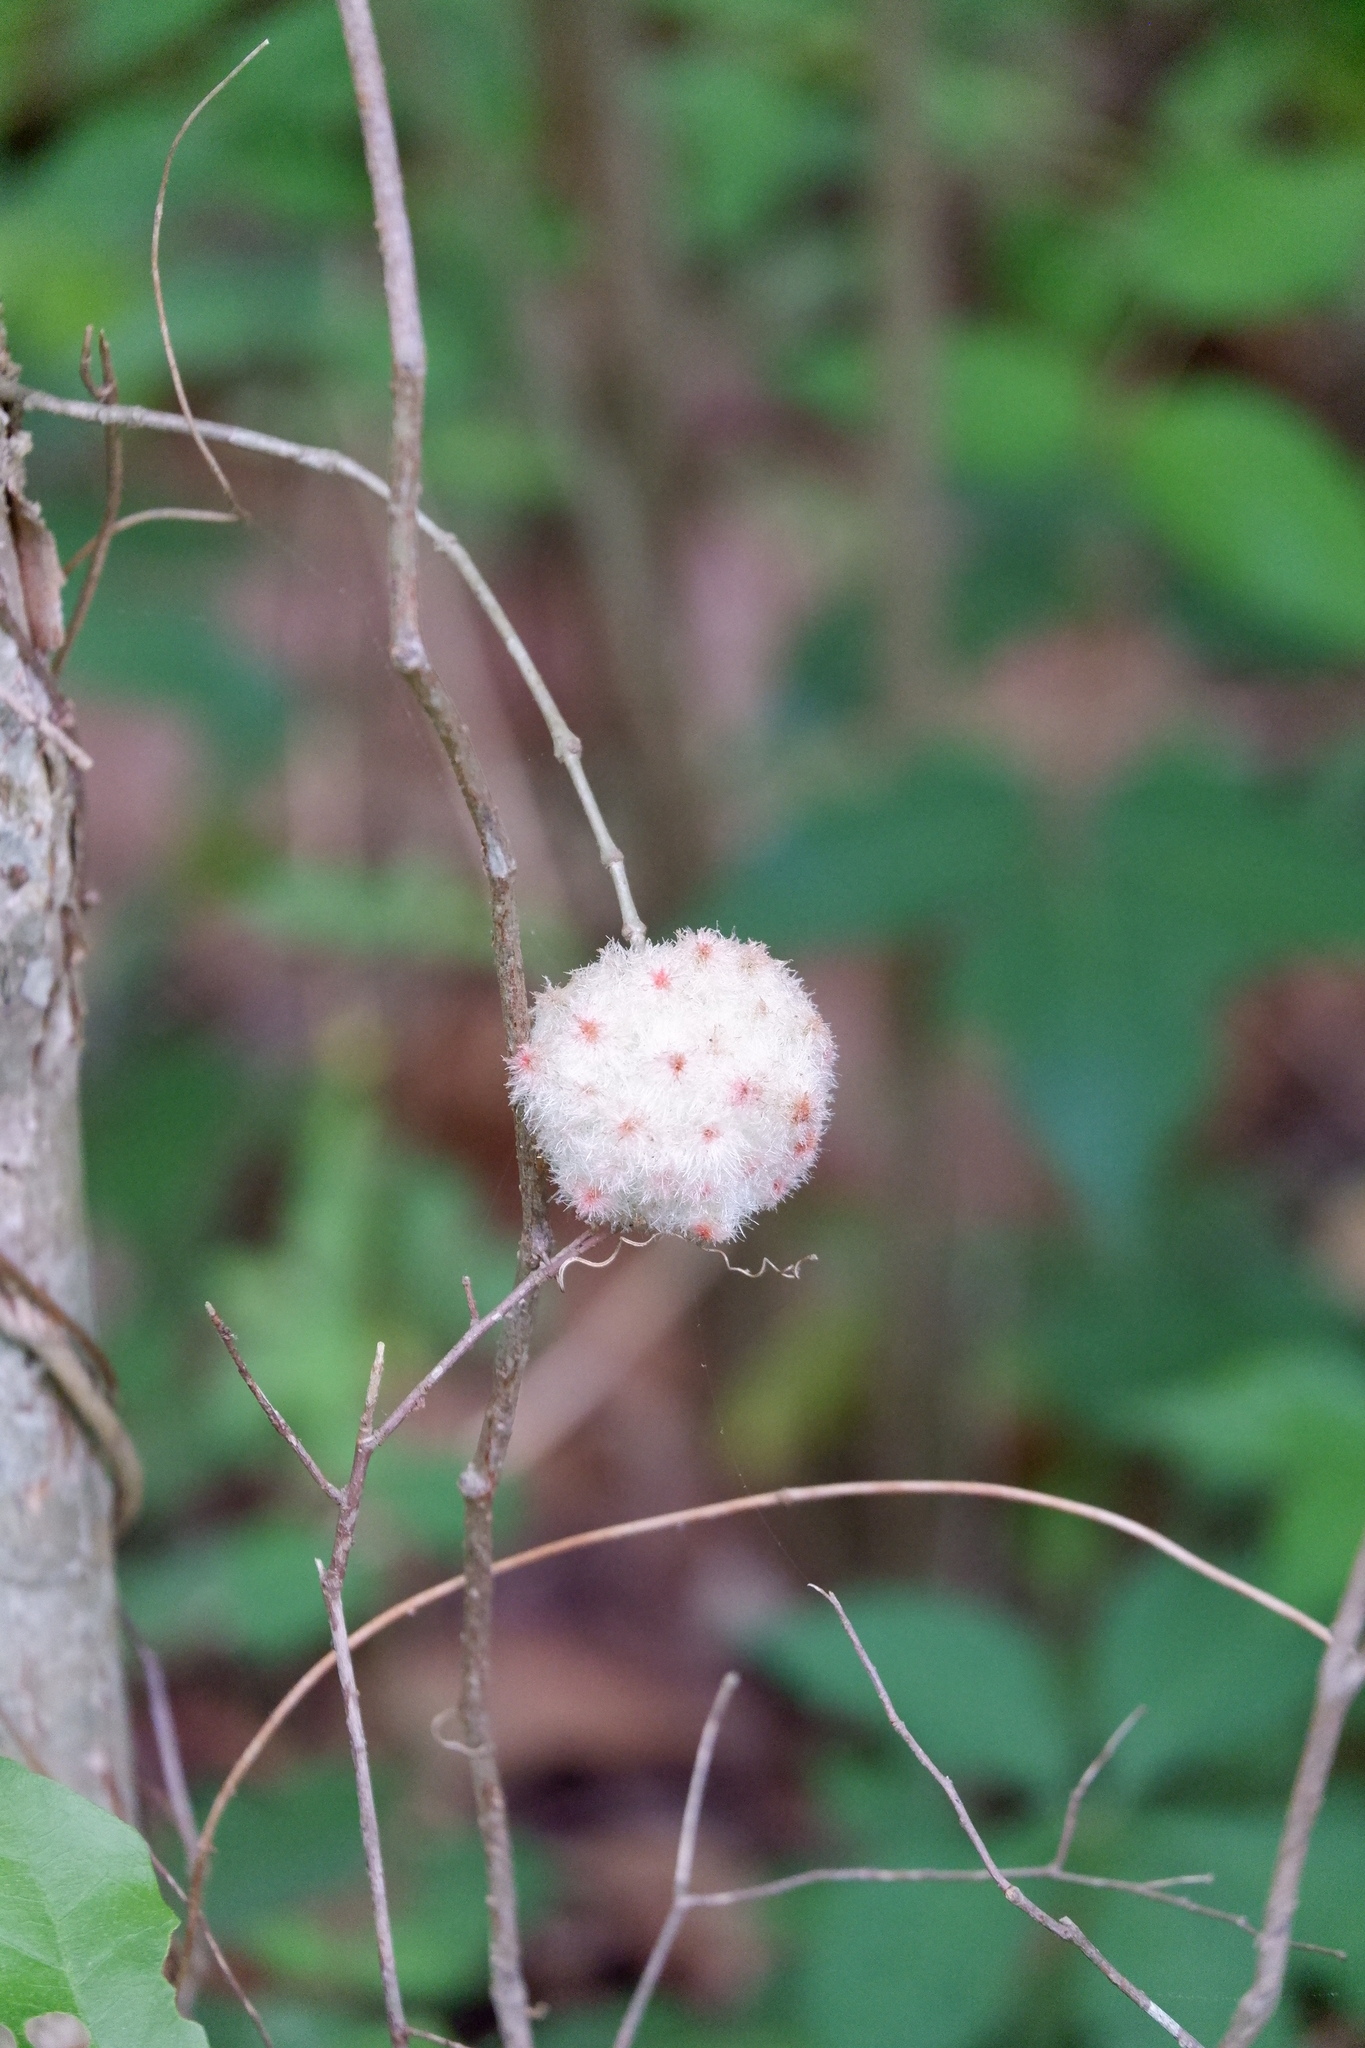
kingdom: Animalia
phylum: Arthropoda
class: Insecta
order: Hymenoptera
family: Cynipidae
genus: Callirhytis
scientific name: Callirhytis
